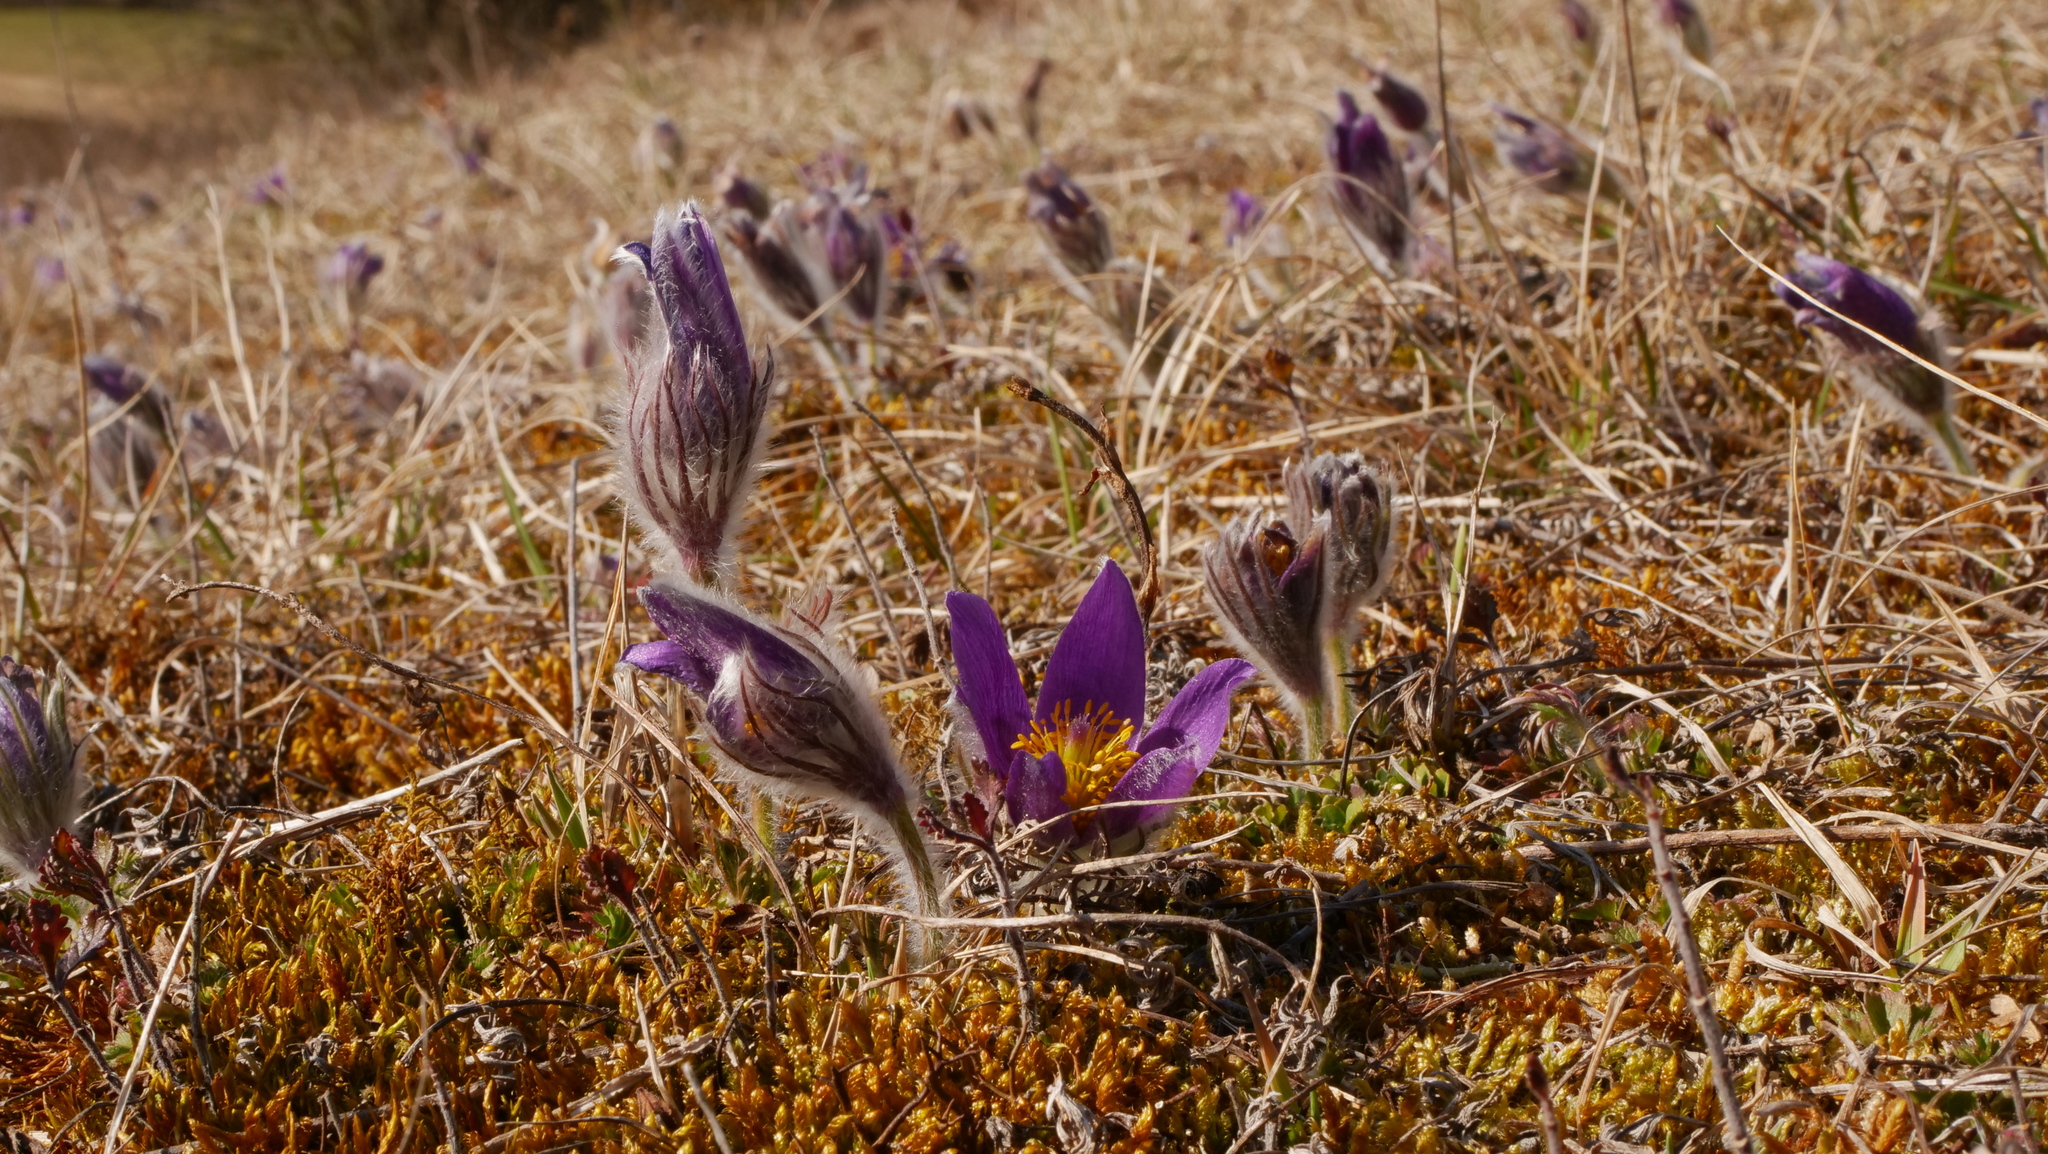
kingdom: Plantae
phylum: Tracheophyta
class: Magnoliopsida
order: Ranunculales
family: Ranunculaceae
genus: Pulsatilla
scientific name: Pulsatilla vulgaris
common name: Pasqueflower
